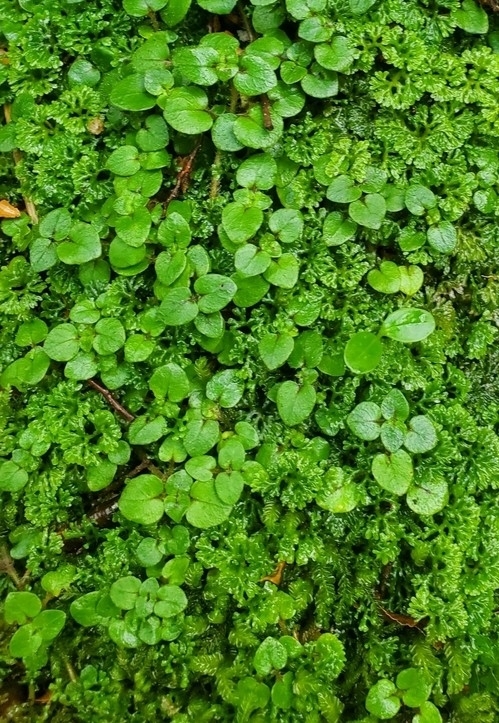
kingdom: Plantae
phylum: Tracheophyta
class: Magnoliopsida
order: Gentianales
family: Rubiaceae
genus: Nertera
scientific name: Nertera villosa
